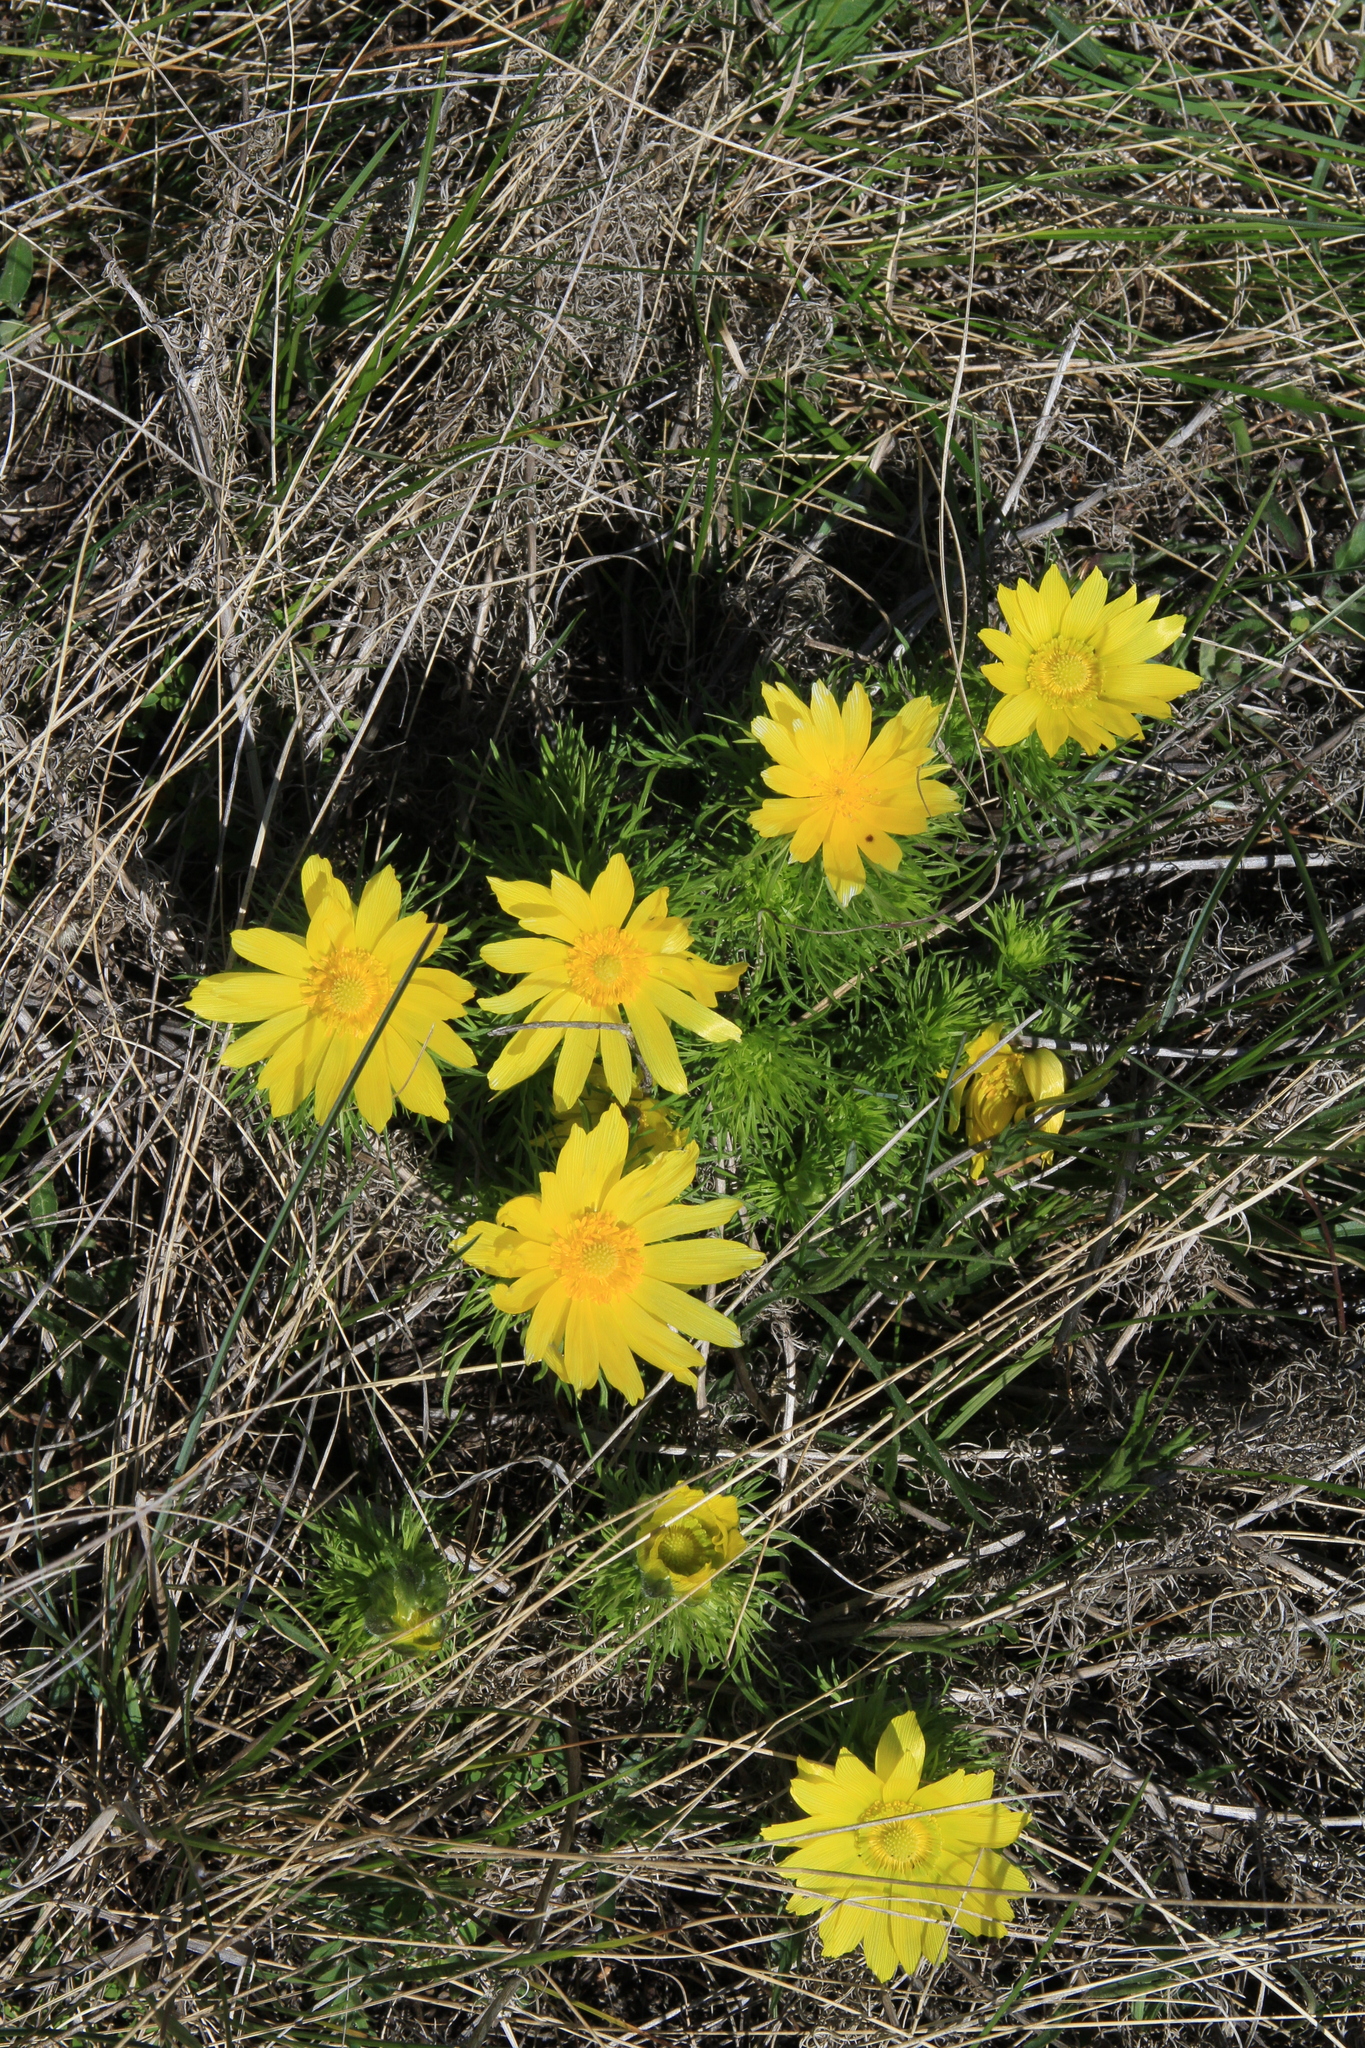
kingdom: Plantae
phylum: Tracheophyta
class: Magnoliopsida
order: Ranunculales
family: Ranunculaceae
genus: Adonis
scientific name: Adonis vernalis
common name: Yellow pheasants-eye
